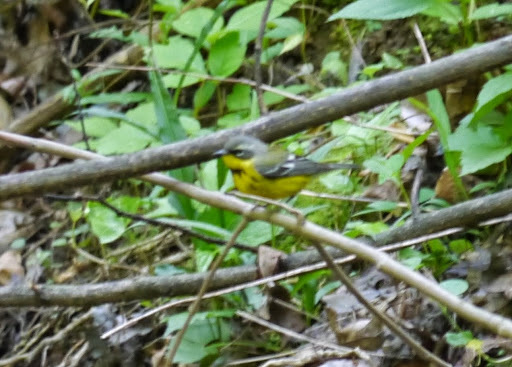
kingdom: Animalia
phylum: Chordata
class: Aves
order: Passeriformes
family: Parulidae
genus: Setophaga
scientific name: Setophaga magnolia
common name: Magnolia warbler
